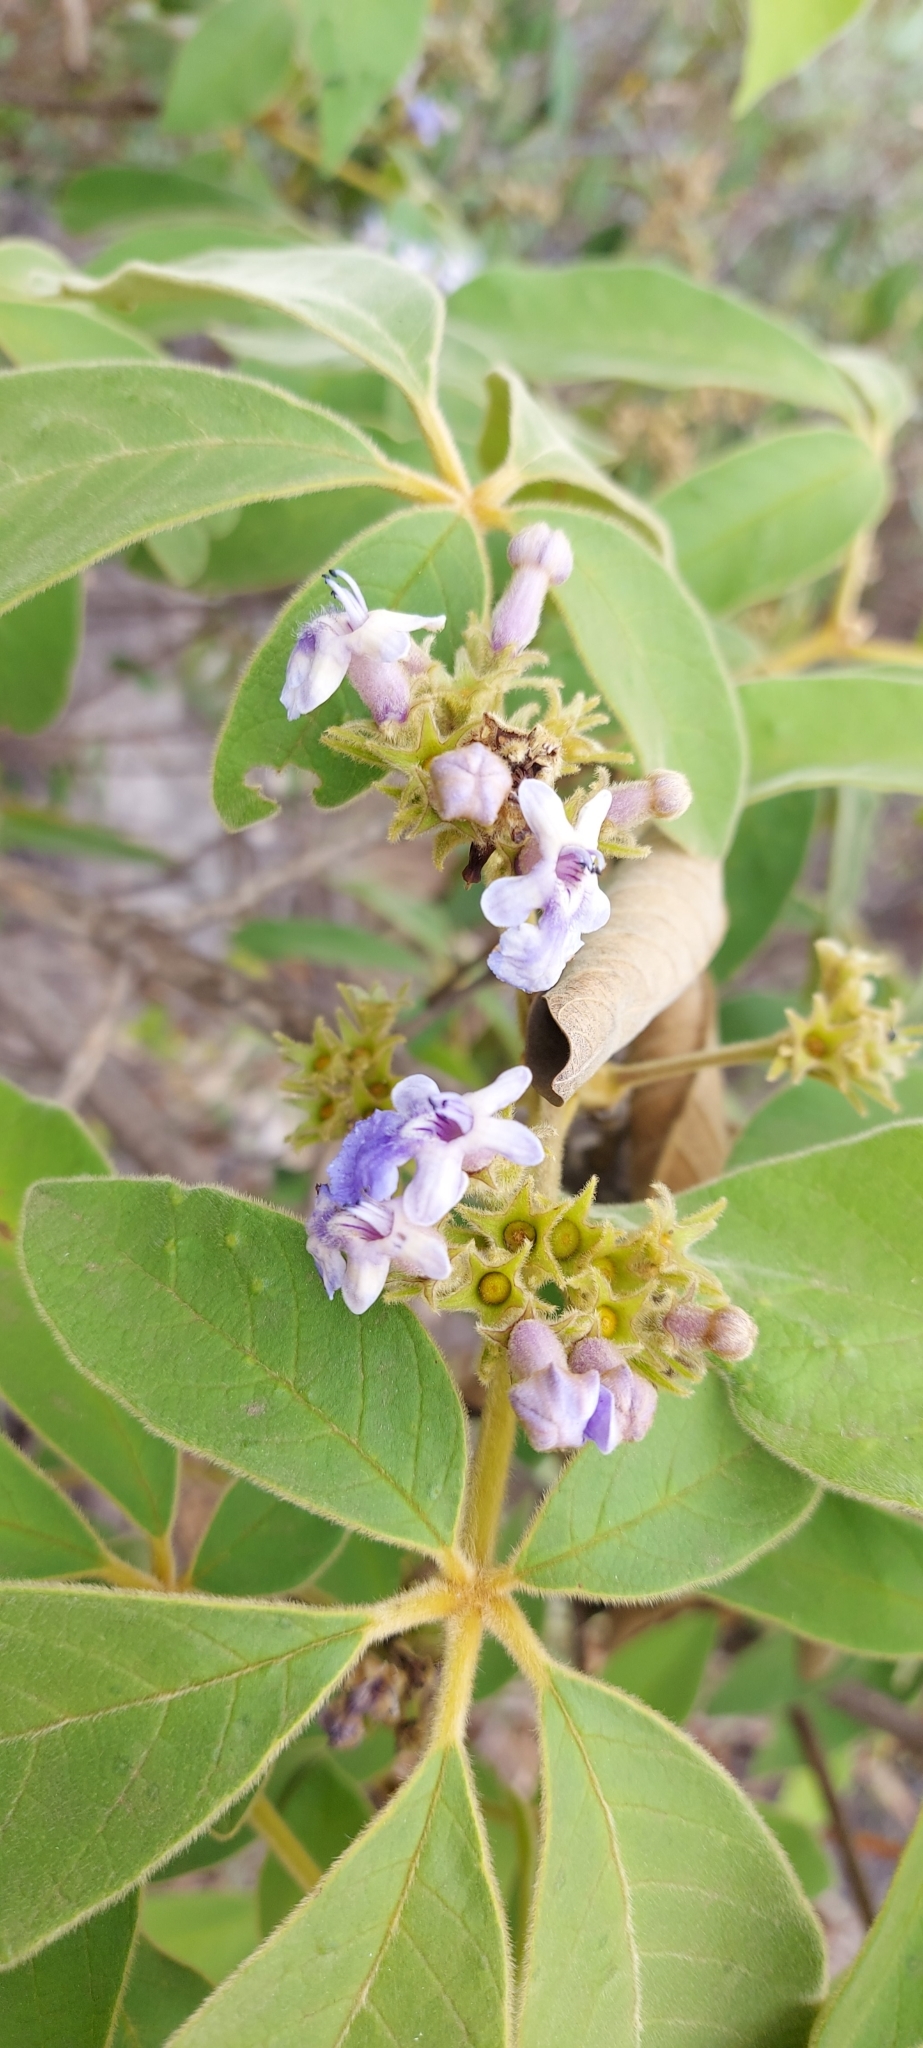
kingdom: Plantae
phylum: Tracheophyta
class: Magnoliopsida
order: Lamiales
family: Lamiaceae
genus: Vitex
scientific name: Vitex polygama
